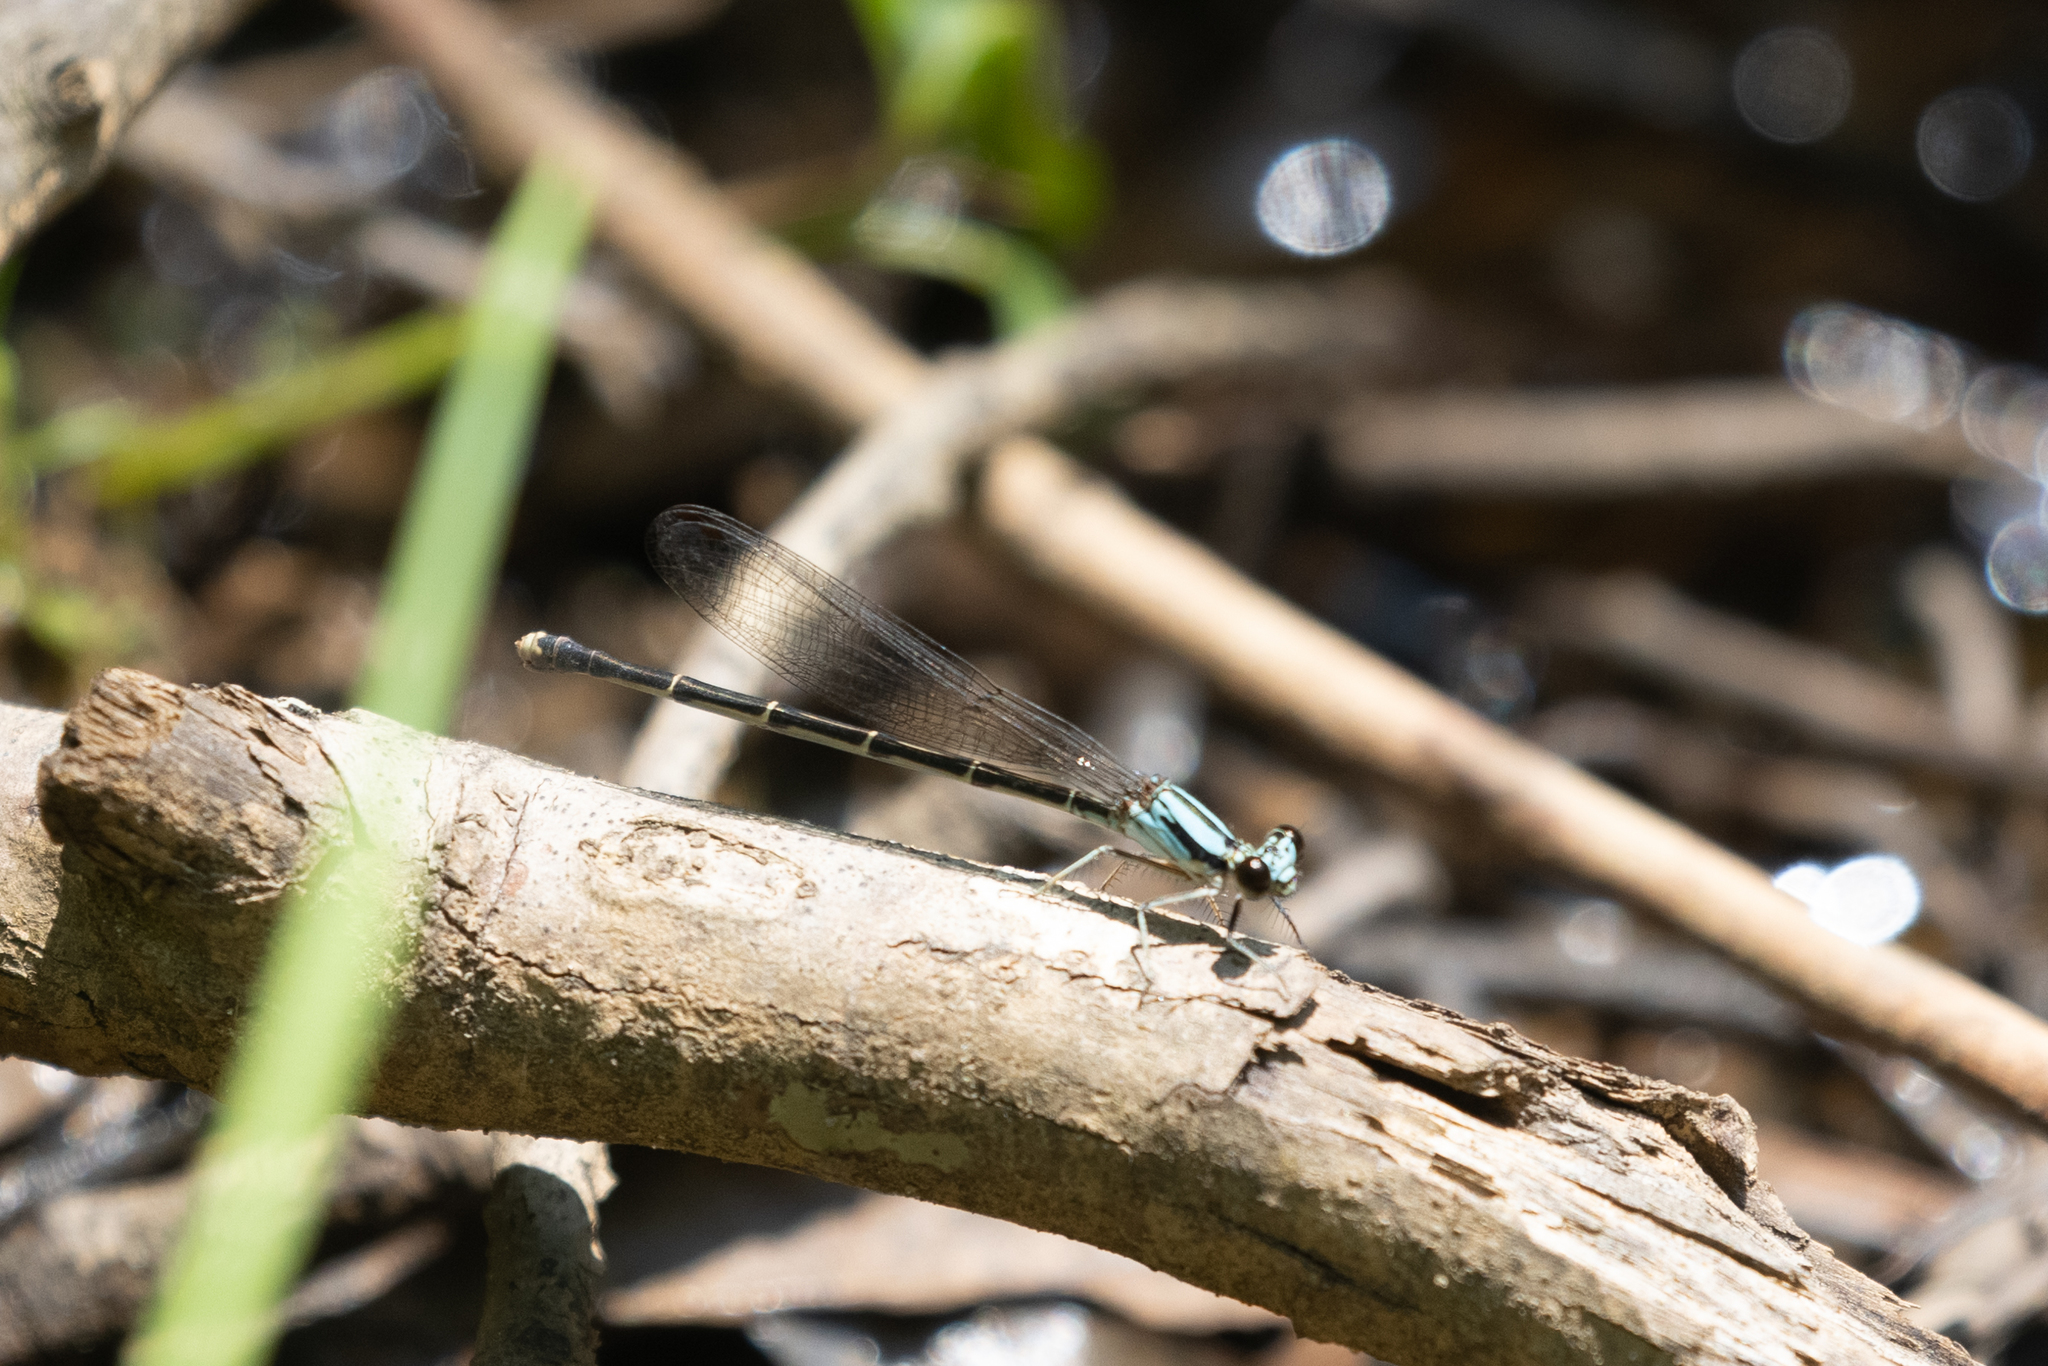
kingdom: Animalia
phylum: Arthropoda
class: Insecta
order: Odonata
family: Coenagrionidae
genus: Argia
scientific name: Argia tibialis
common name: Blue-tipped dancer
